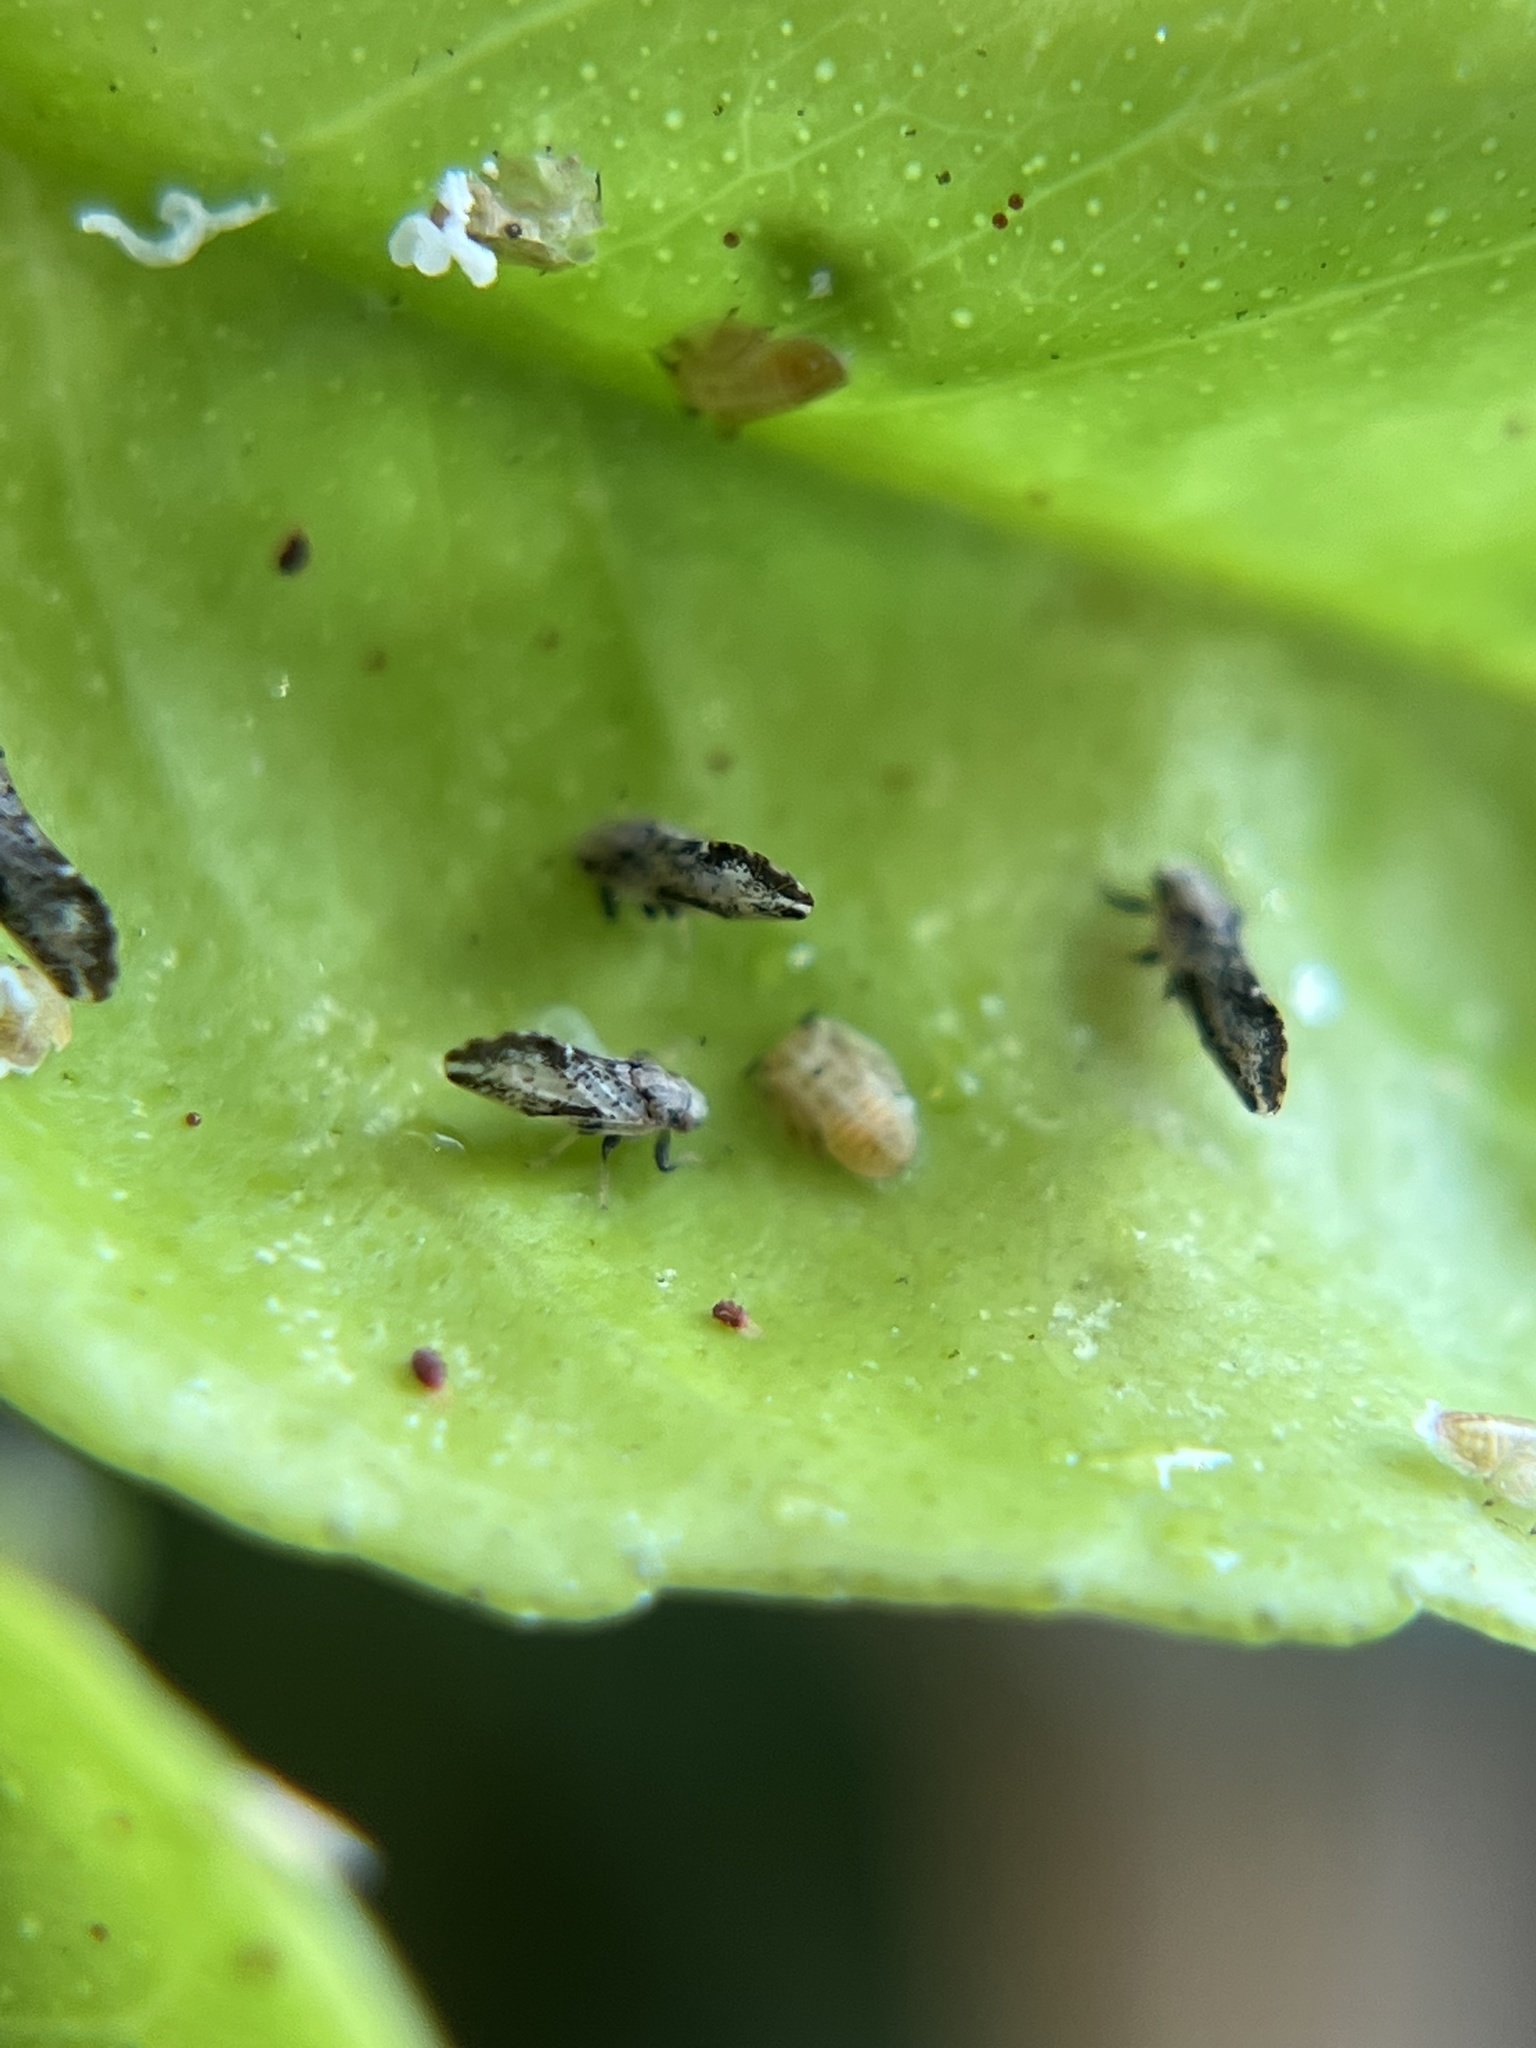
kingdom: Animalia
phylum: Arthropoda
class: Insecta
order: Hemiptera
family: Liviidae
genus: Diaphorina
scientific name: Diaphorina citri
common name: Asian citrus psyllid
